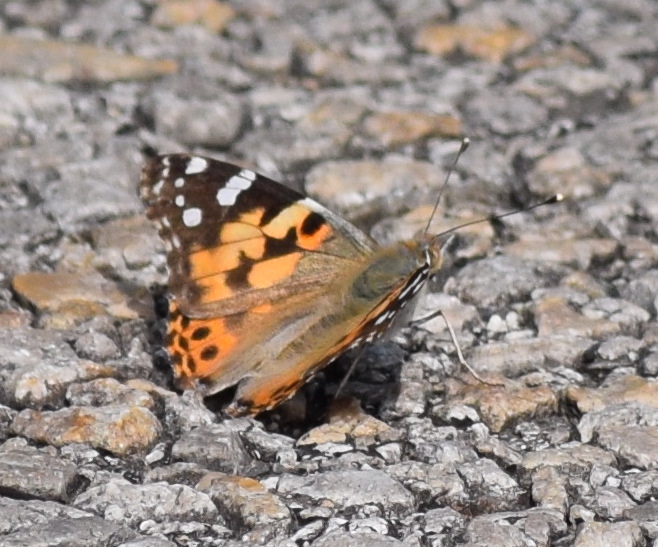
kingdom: Animalia
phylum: Arthropoda
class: Insecta
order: Lepidoptera
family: Nymphalidae
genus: Vanessa
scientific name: Vanessa cardui
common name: Painted lady
